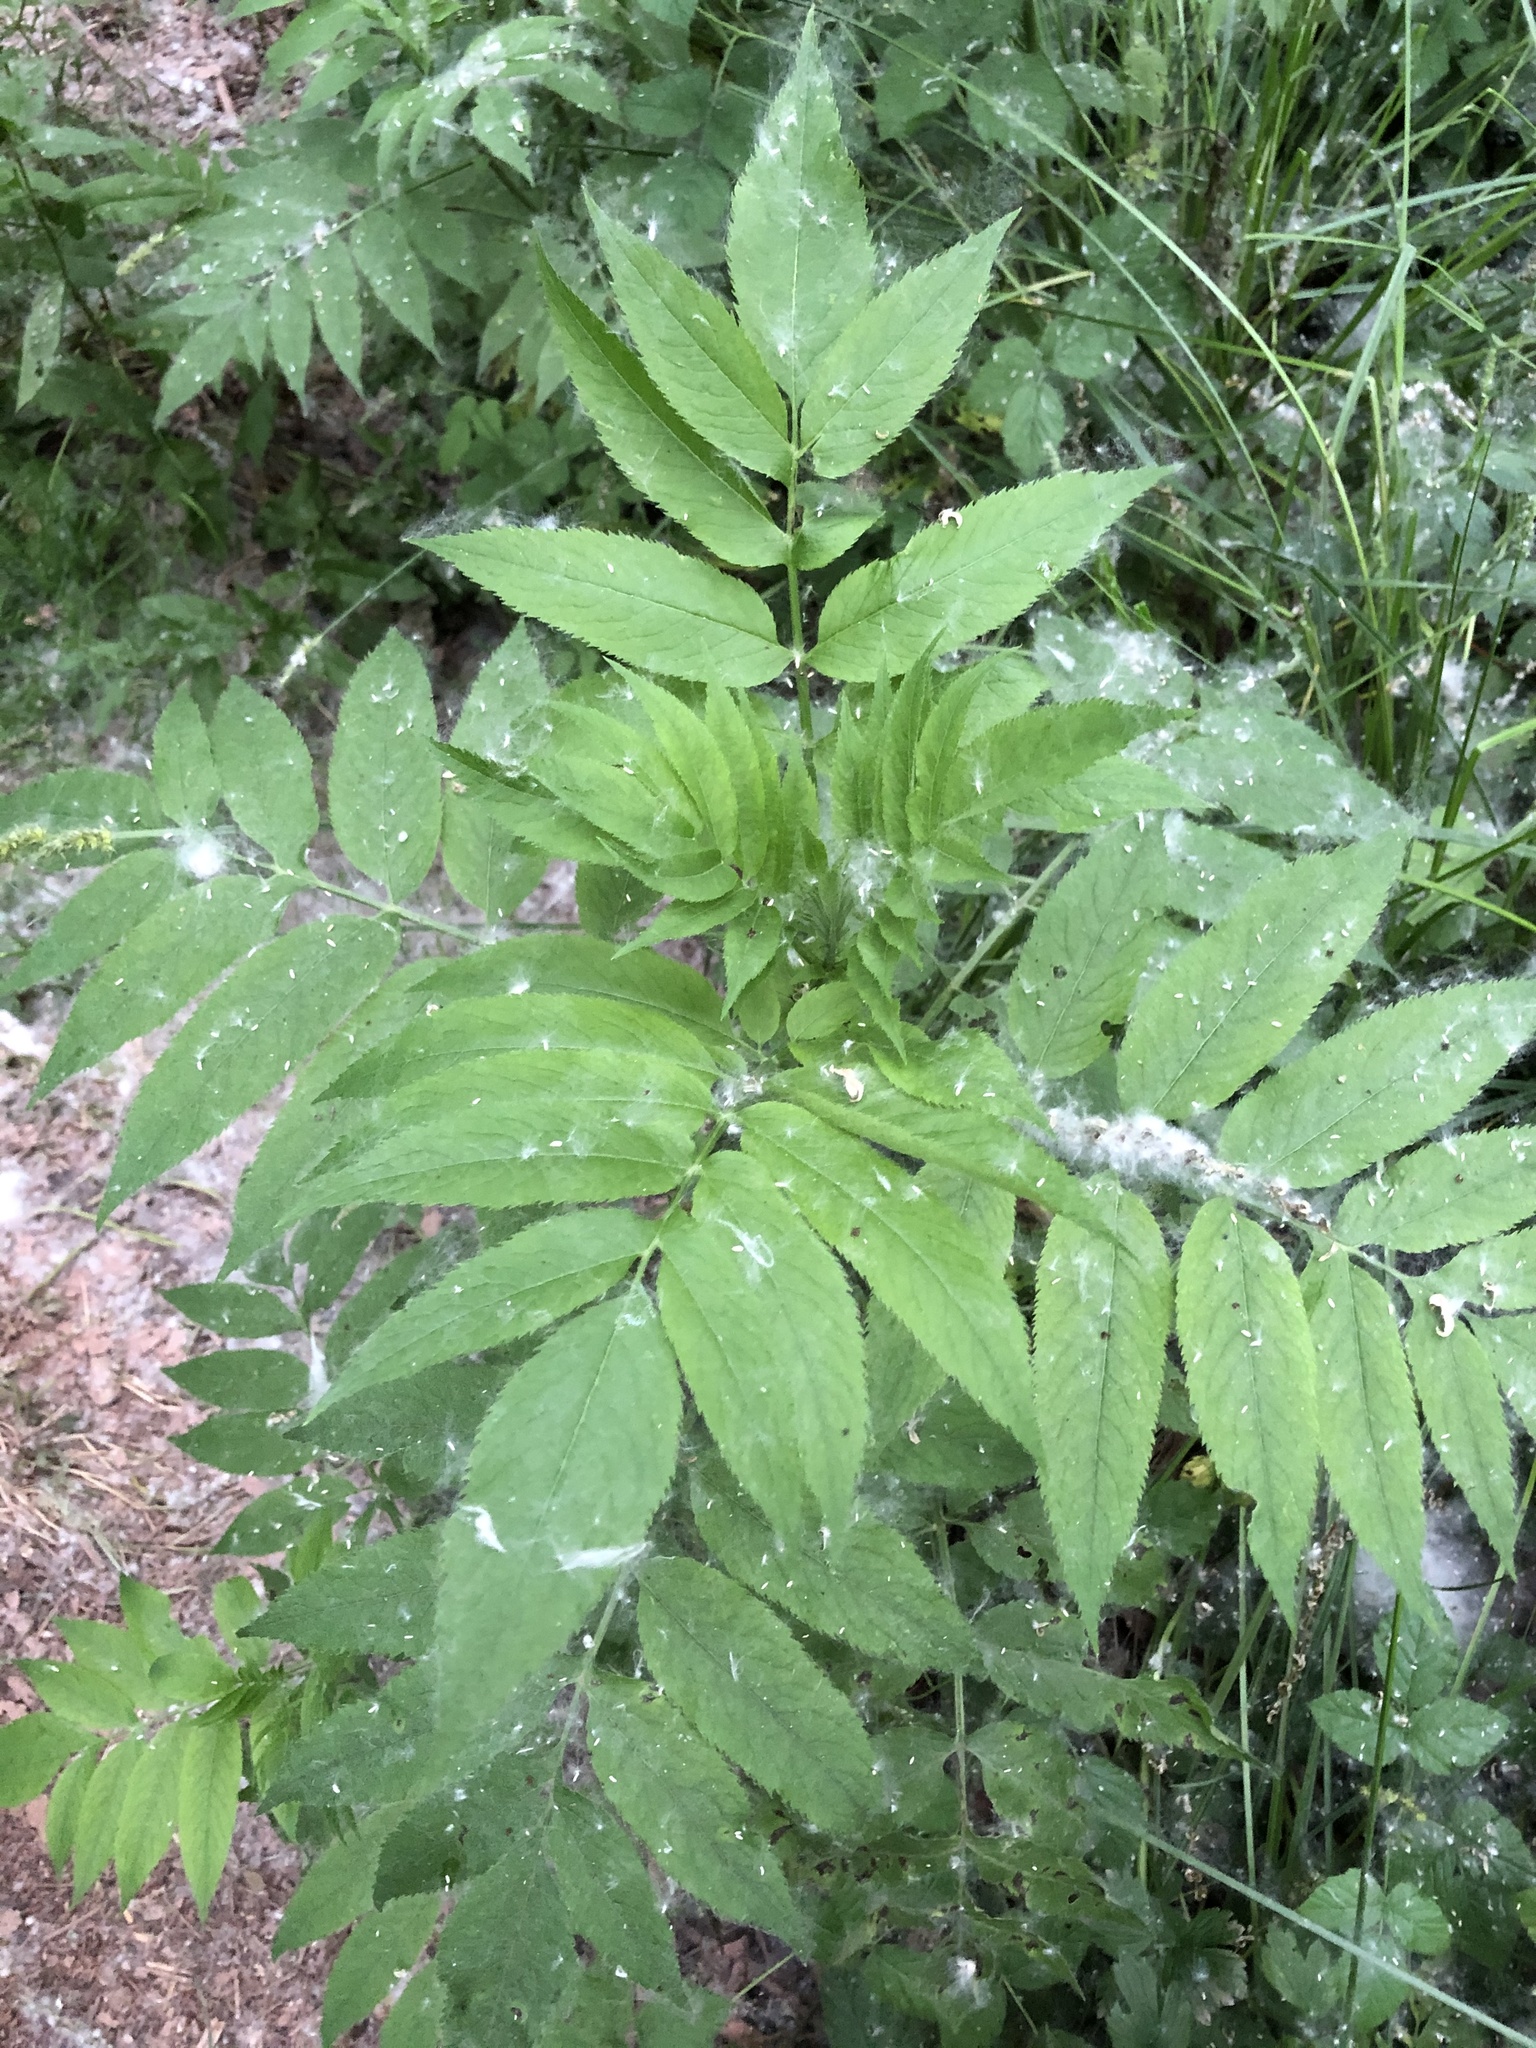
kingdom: Plantae
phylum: Tracheophyta
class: Magnoliopsida
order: Dipsacales
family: Viburnaceae
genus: Sambucus
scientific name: Sambucus ebulus
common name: Dwarf elder
